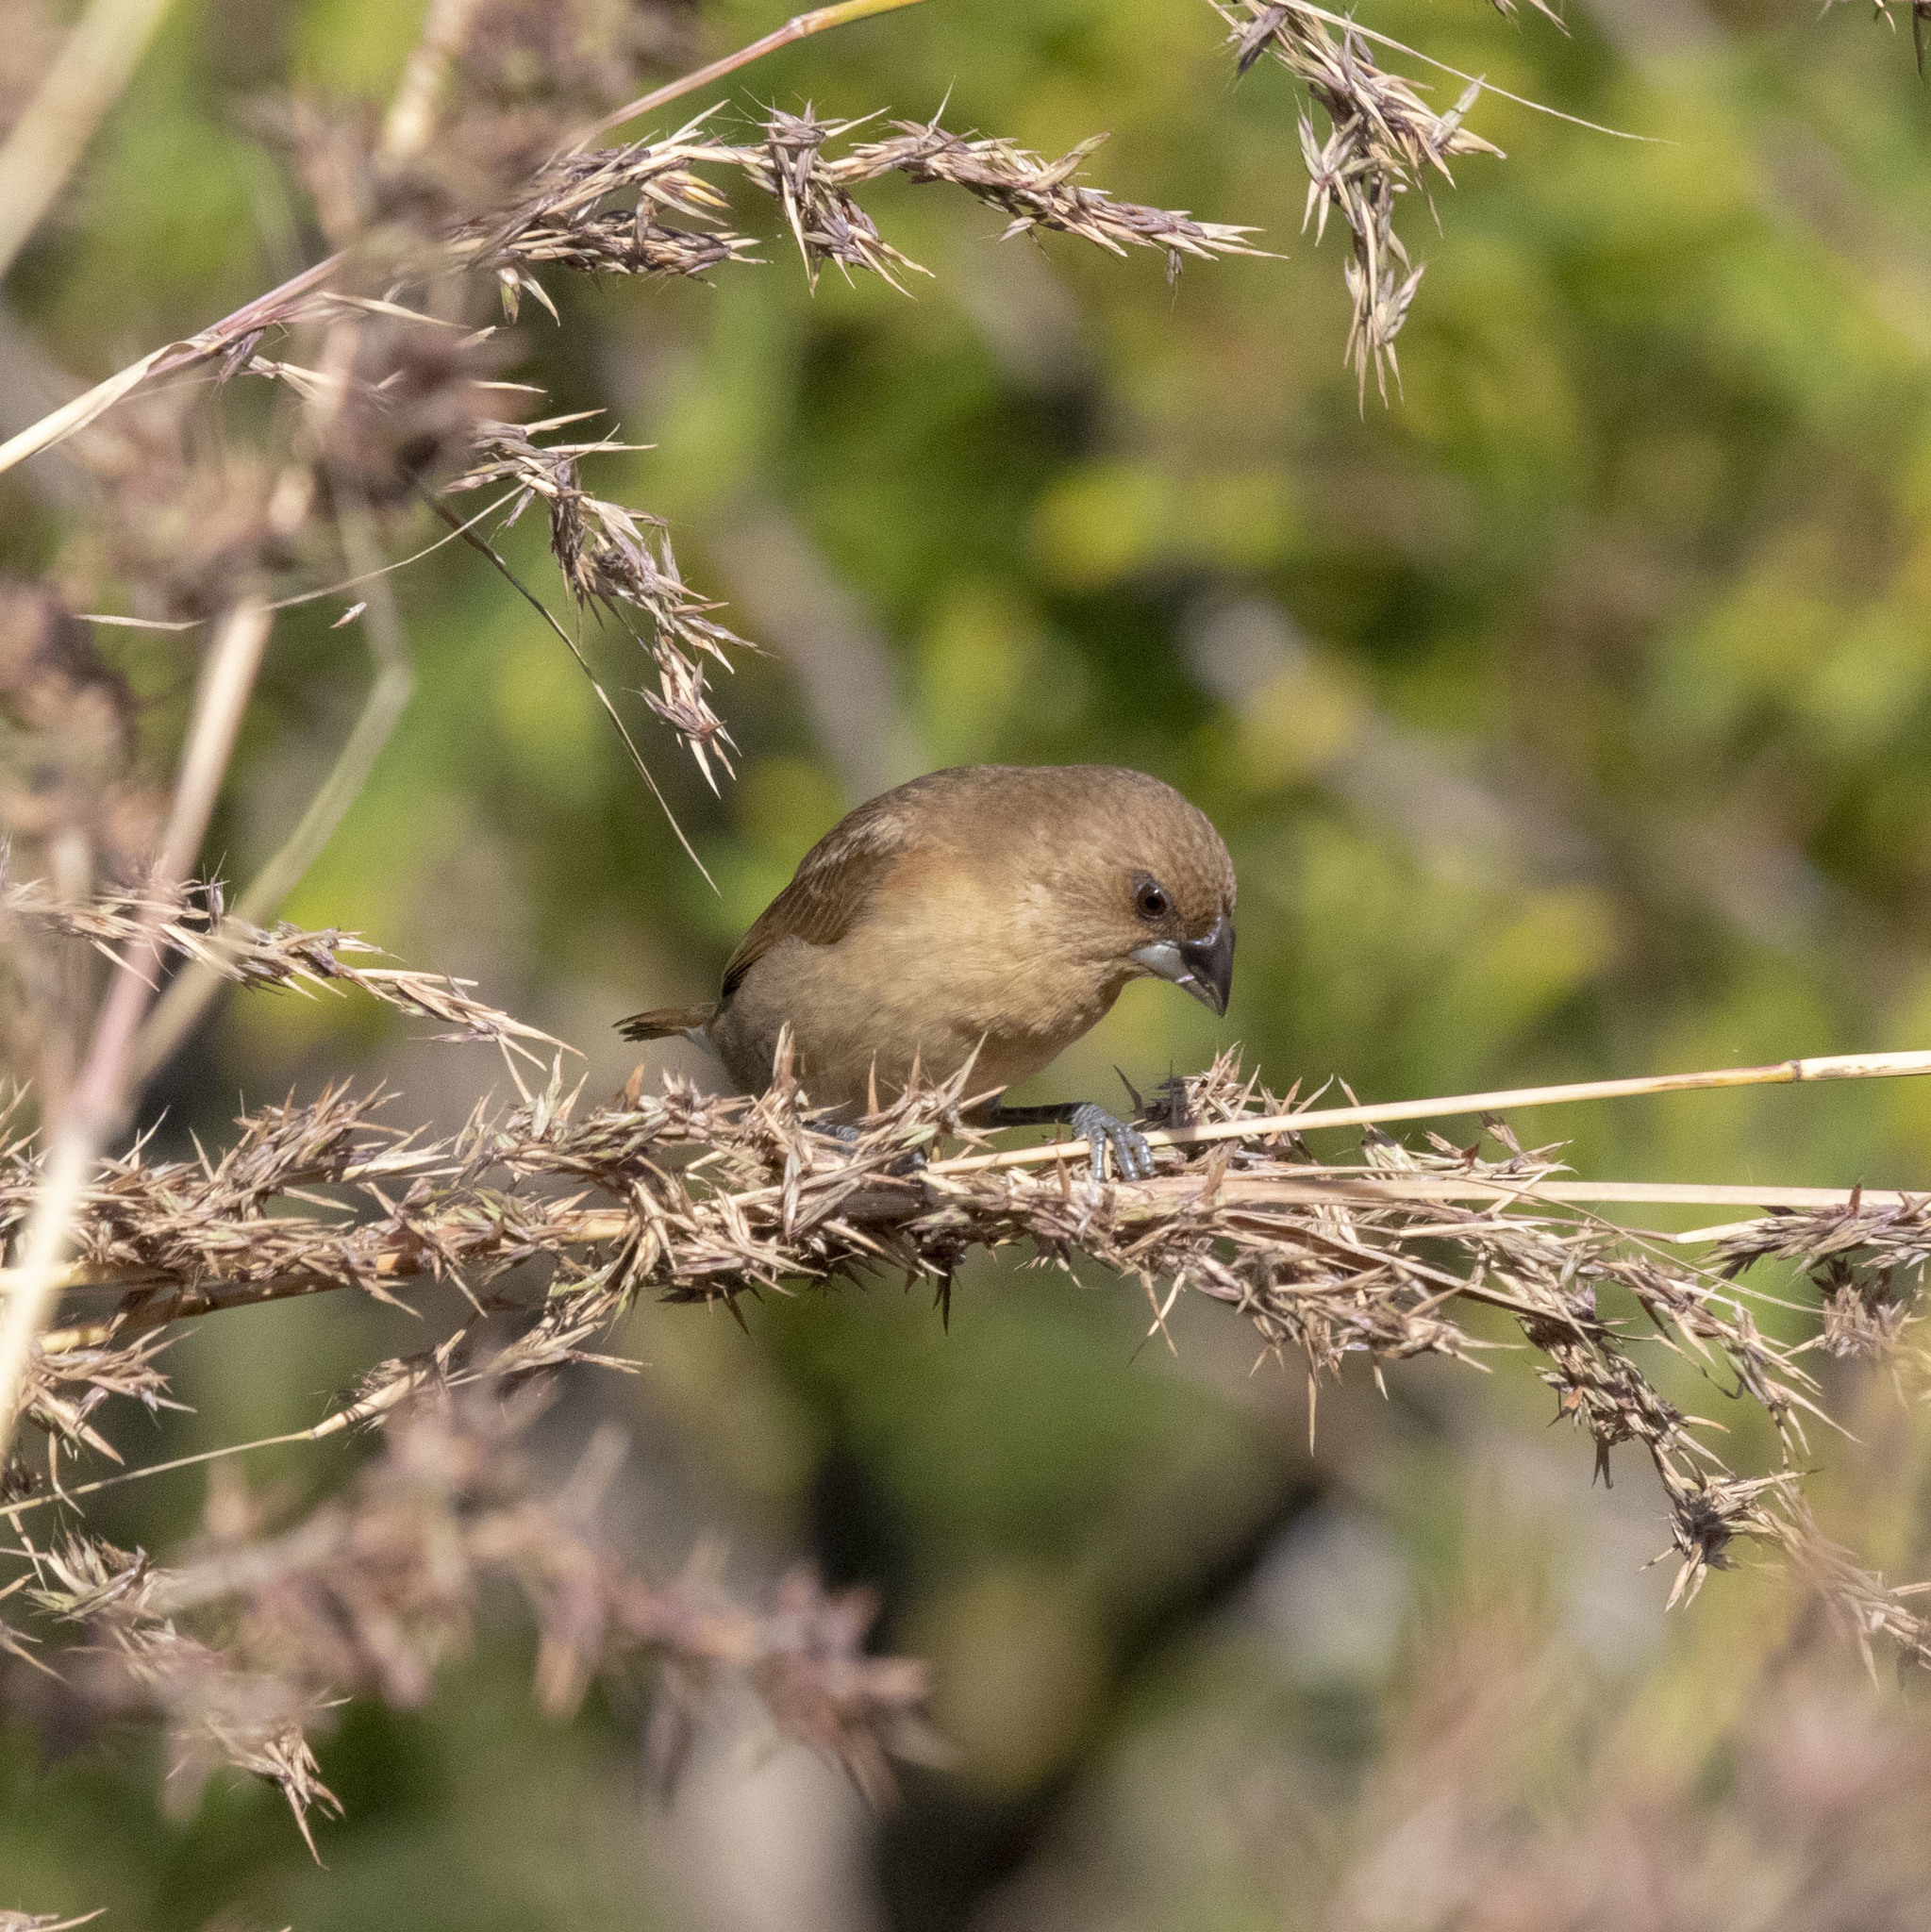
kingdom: Animalia
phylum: Chordata
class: Aves
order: Passeriformes
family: Estrildidae
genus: Euodice
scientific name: Euodice malabarica
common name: Indian silverbill
